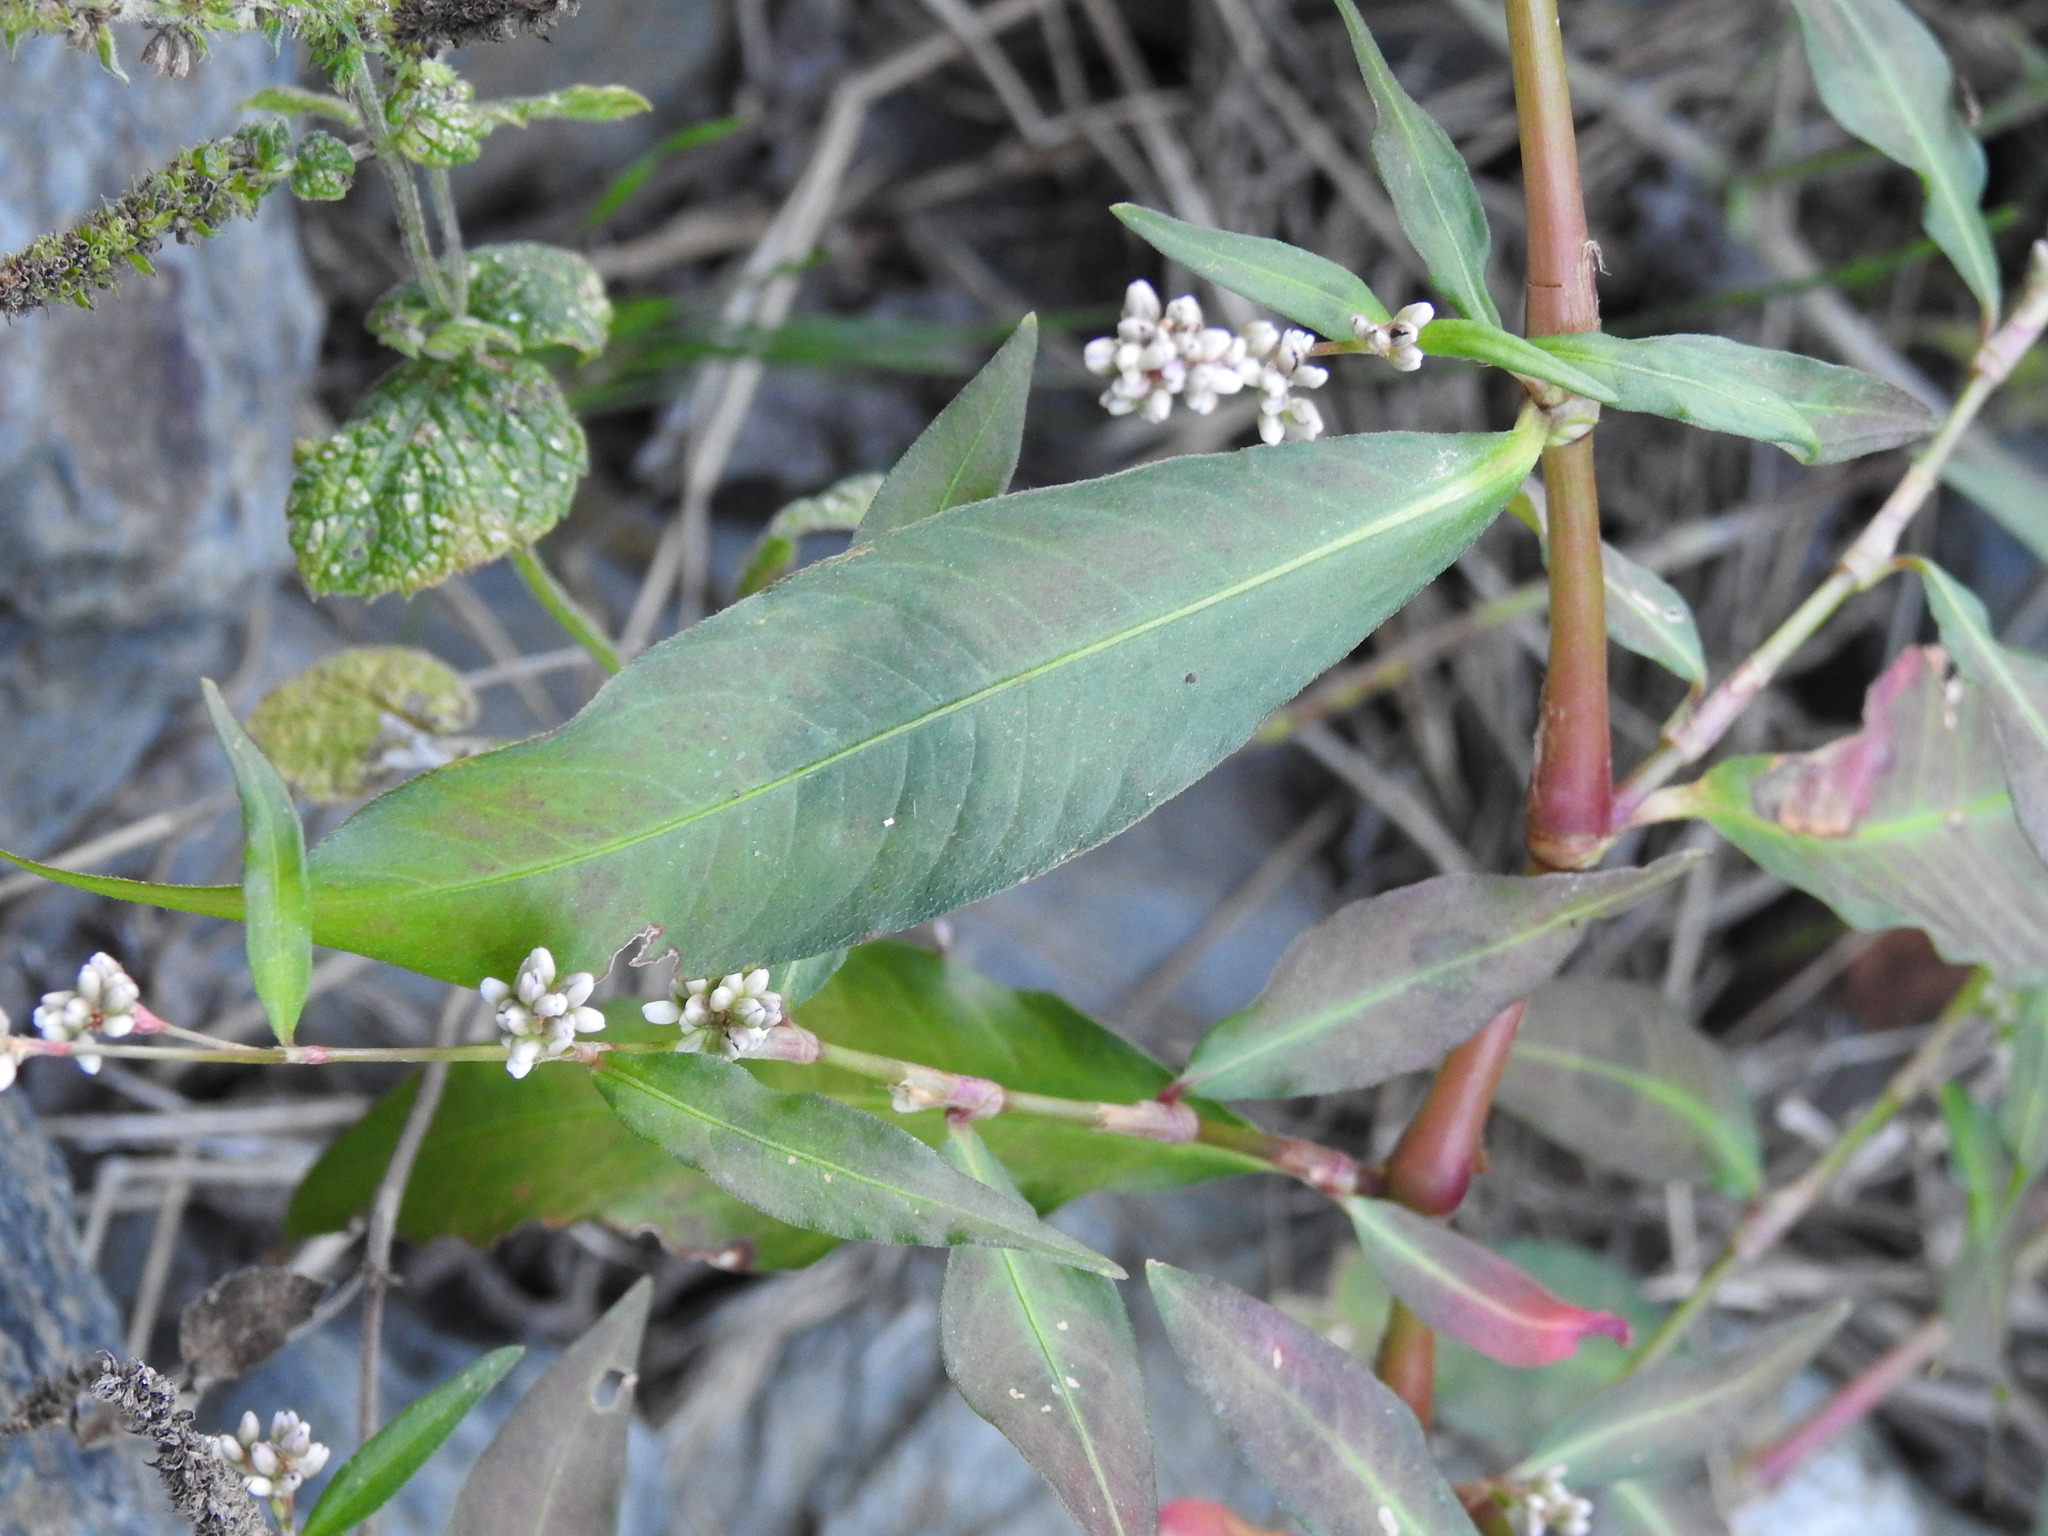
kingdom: Plantae
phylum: Tracheophyta
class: Magnoliopsida
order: Caryophyllales
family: Polygonaceae
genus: Persicaria
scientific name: Persicaria maculosa
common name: Redshank
